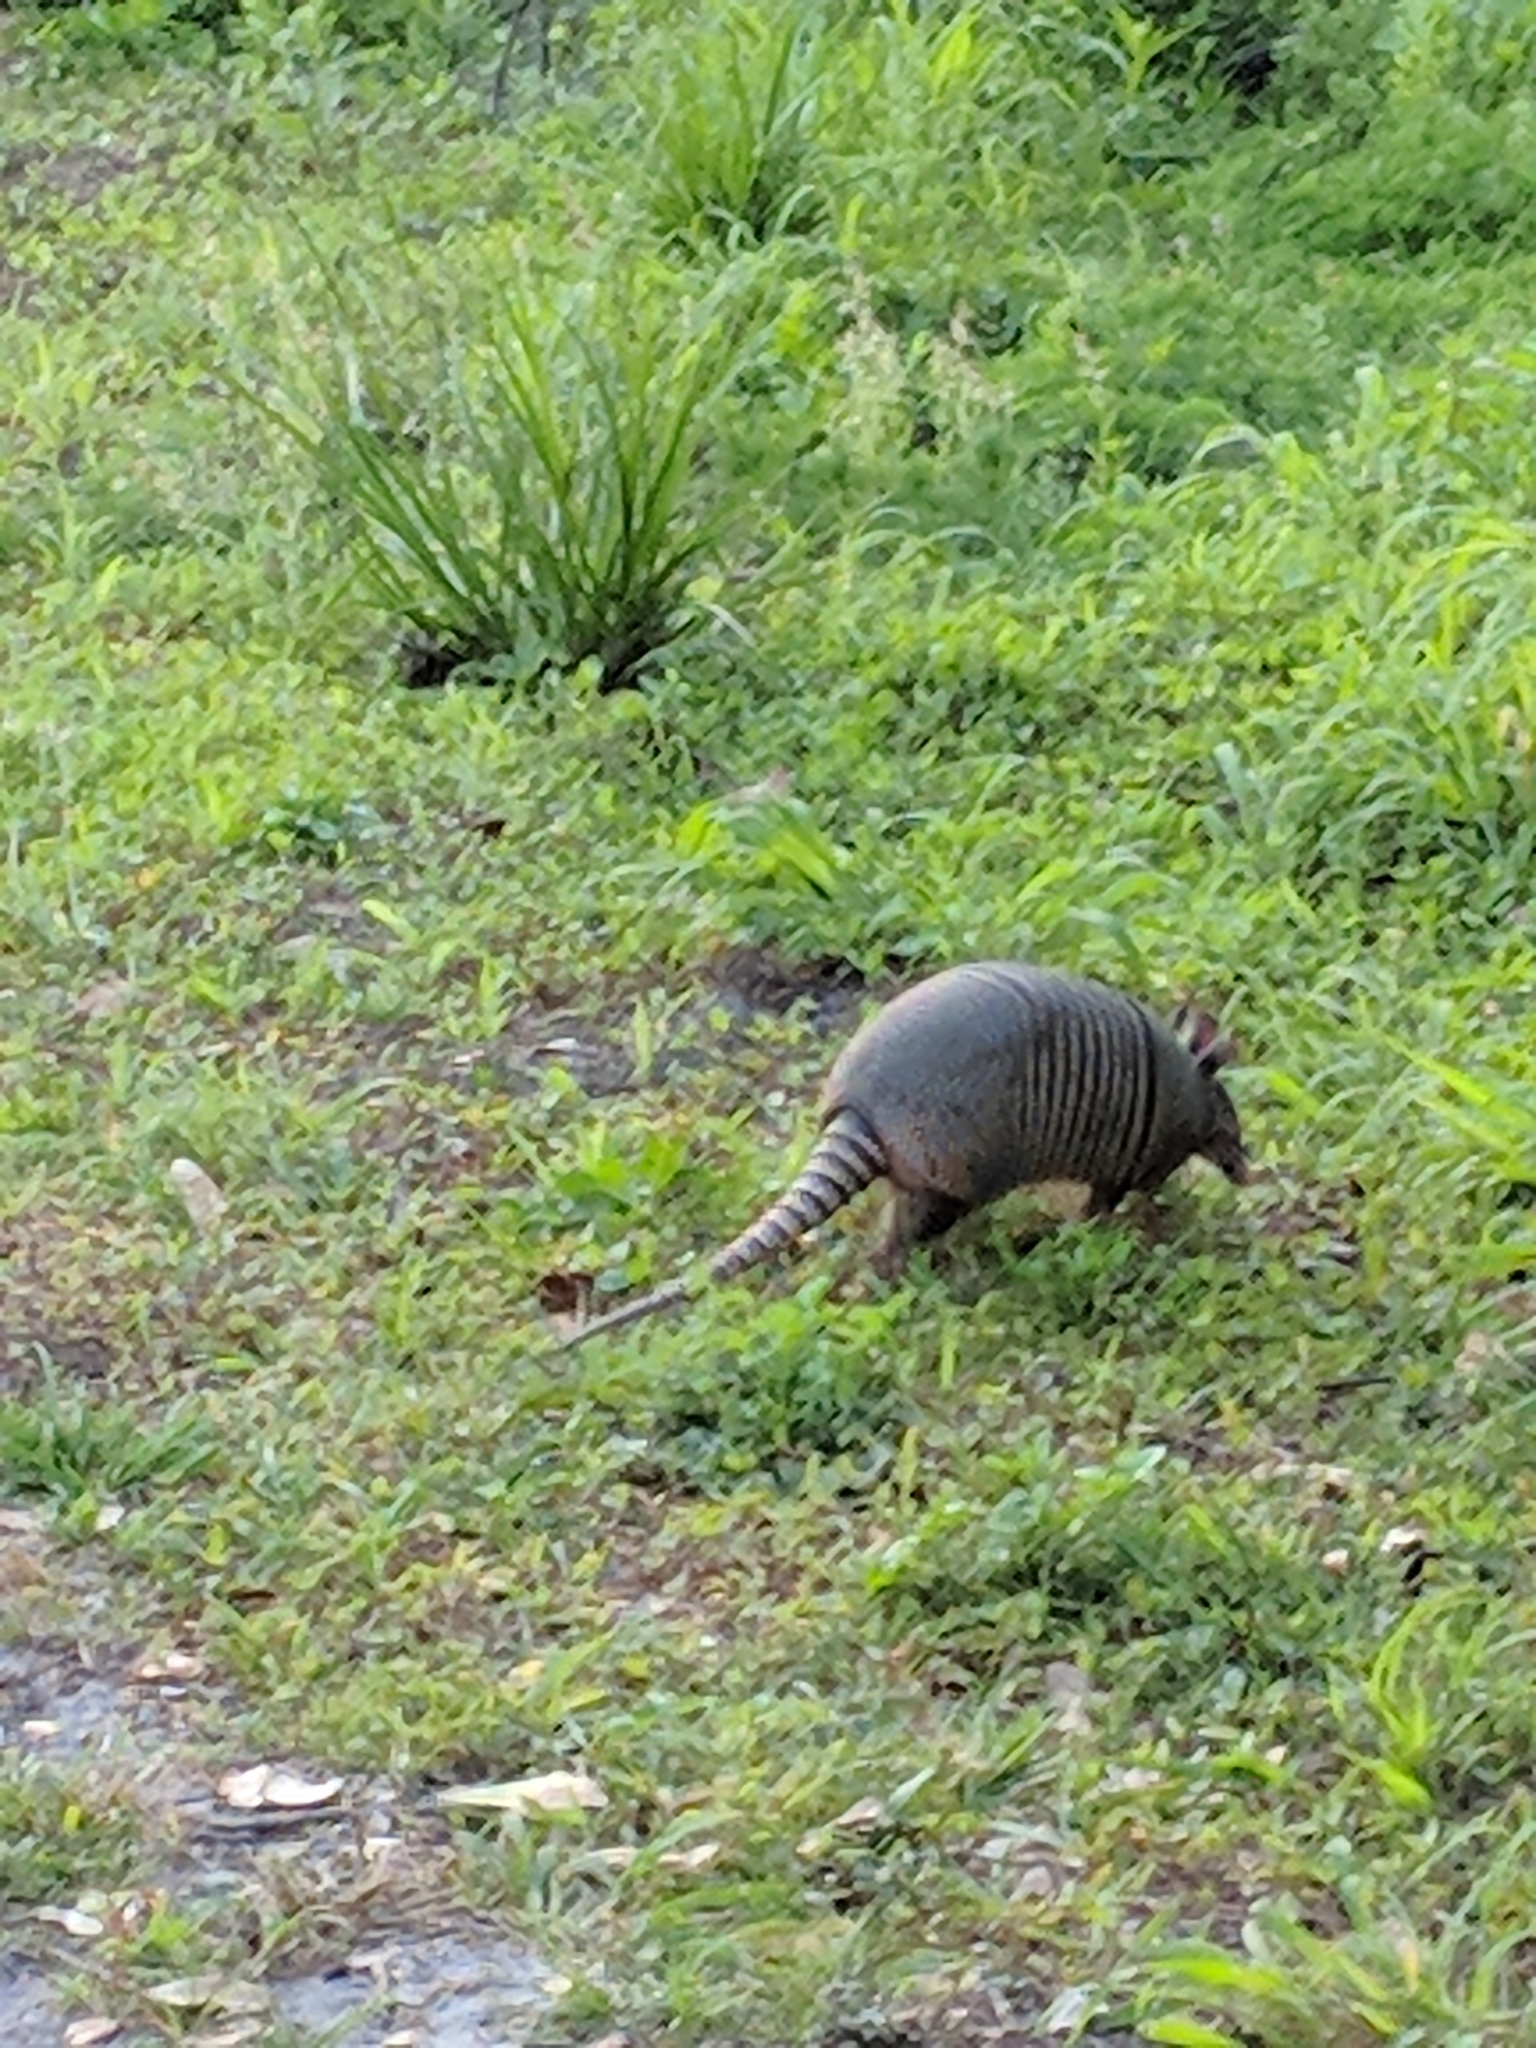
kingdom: Animalia
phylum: Chordata
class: Mammalia
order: Cingulata
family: Dasypodidae
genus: Dasypus
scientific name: Dasypus novemcinctus
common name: Nine-banded armadillo
